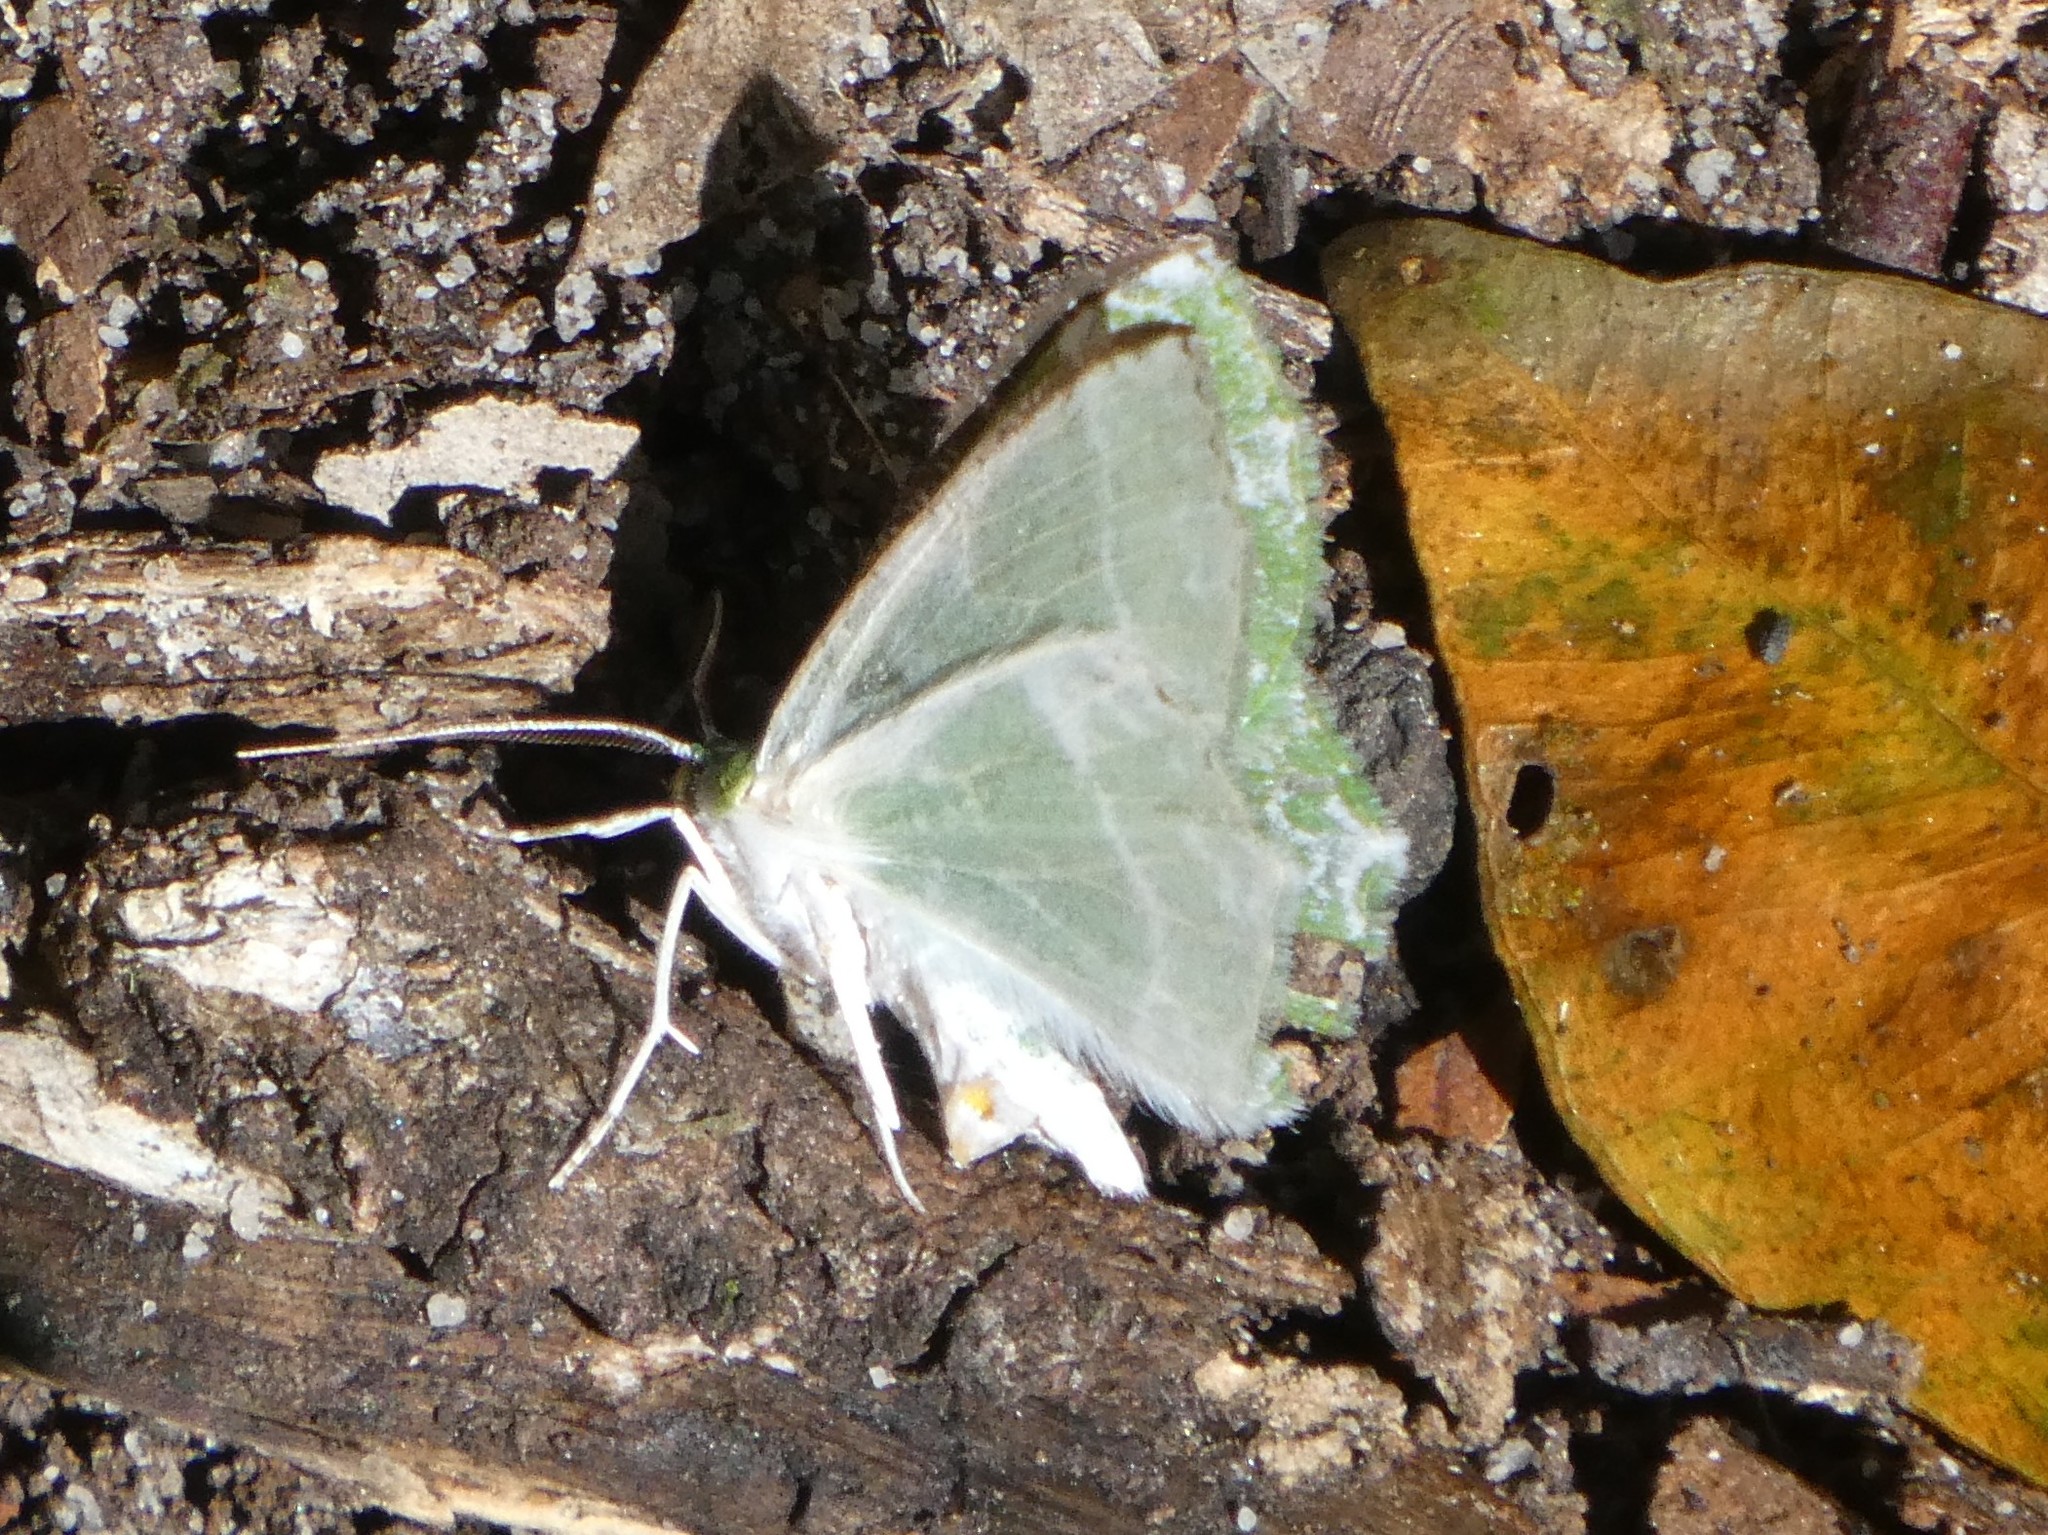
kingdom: Animalia
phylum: Arthropoda
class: Insecta
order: Lepidoptera
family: Geometridae
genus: Eucyclodes
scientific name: Eucyclodes insperata
